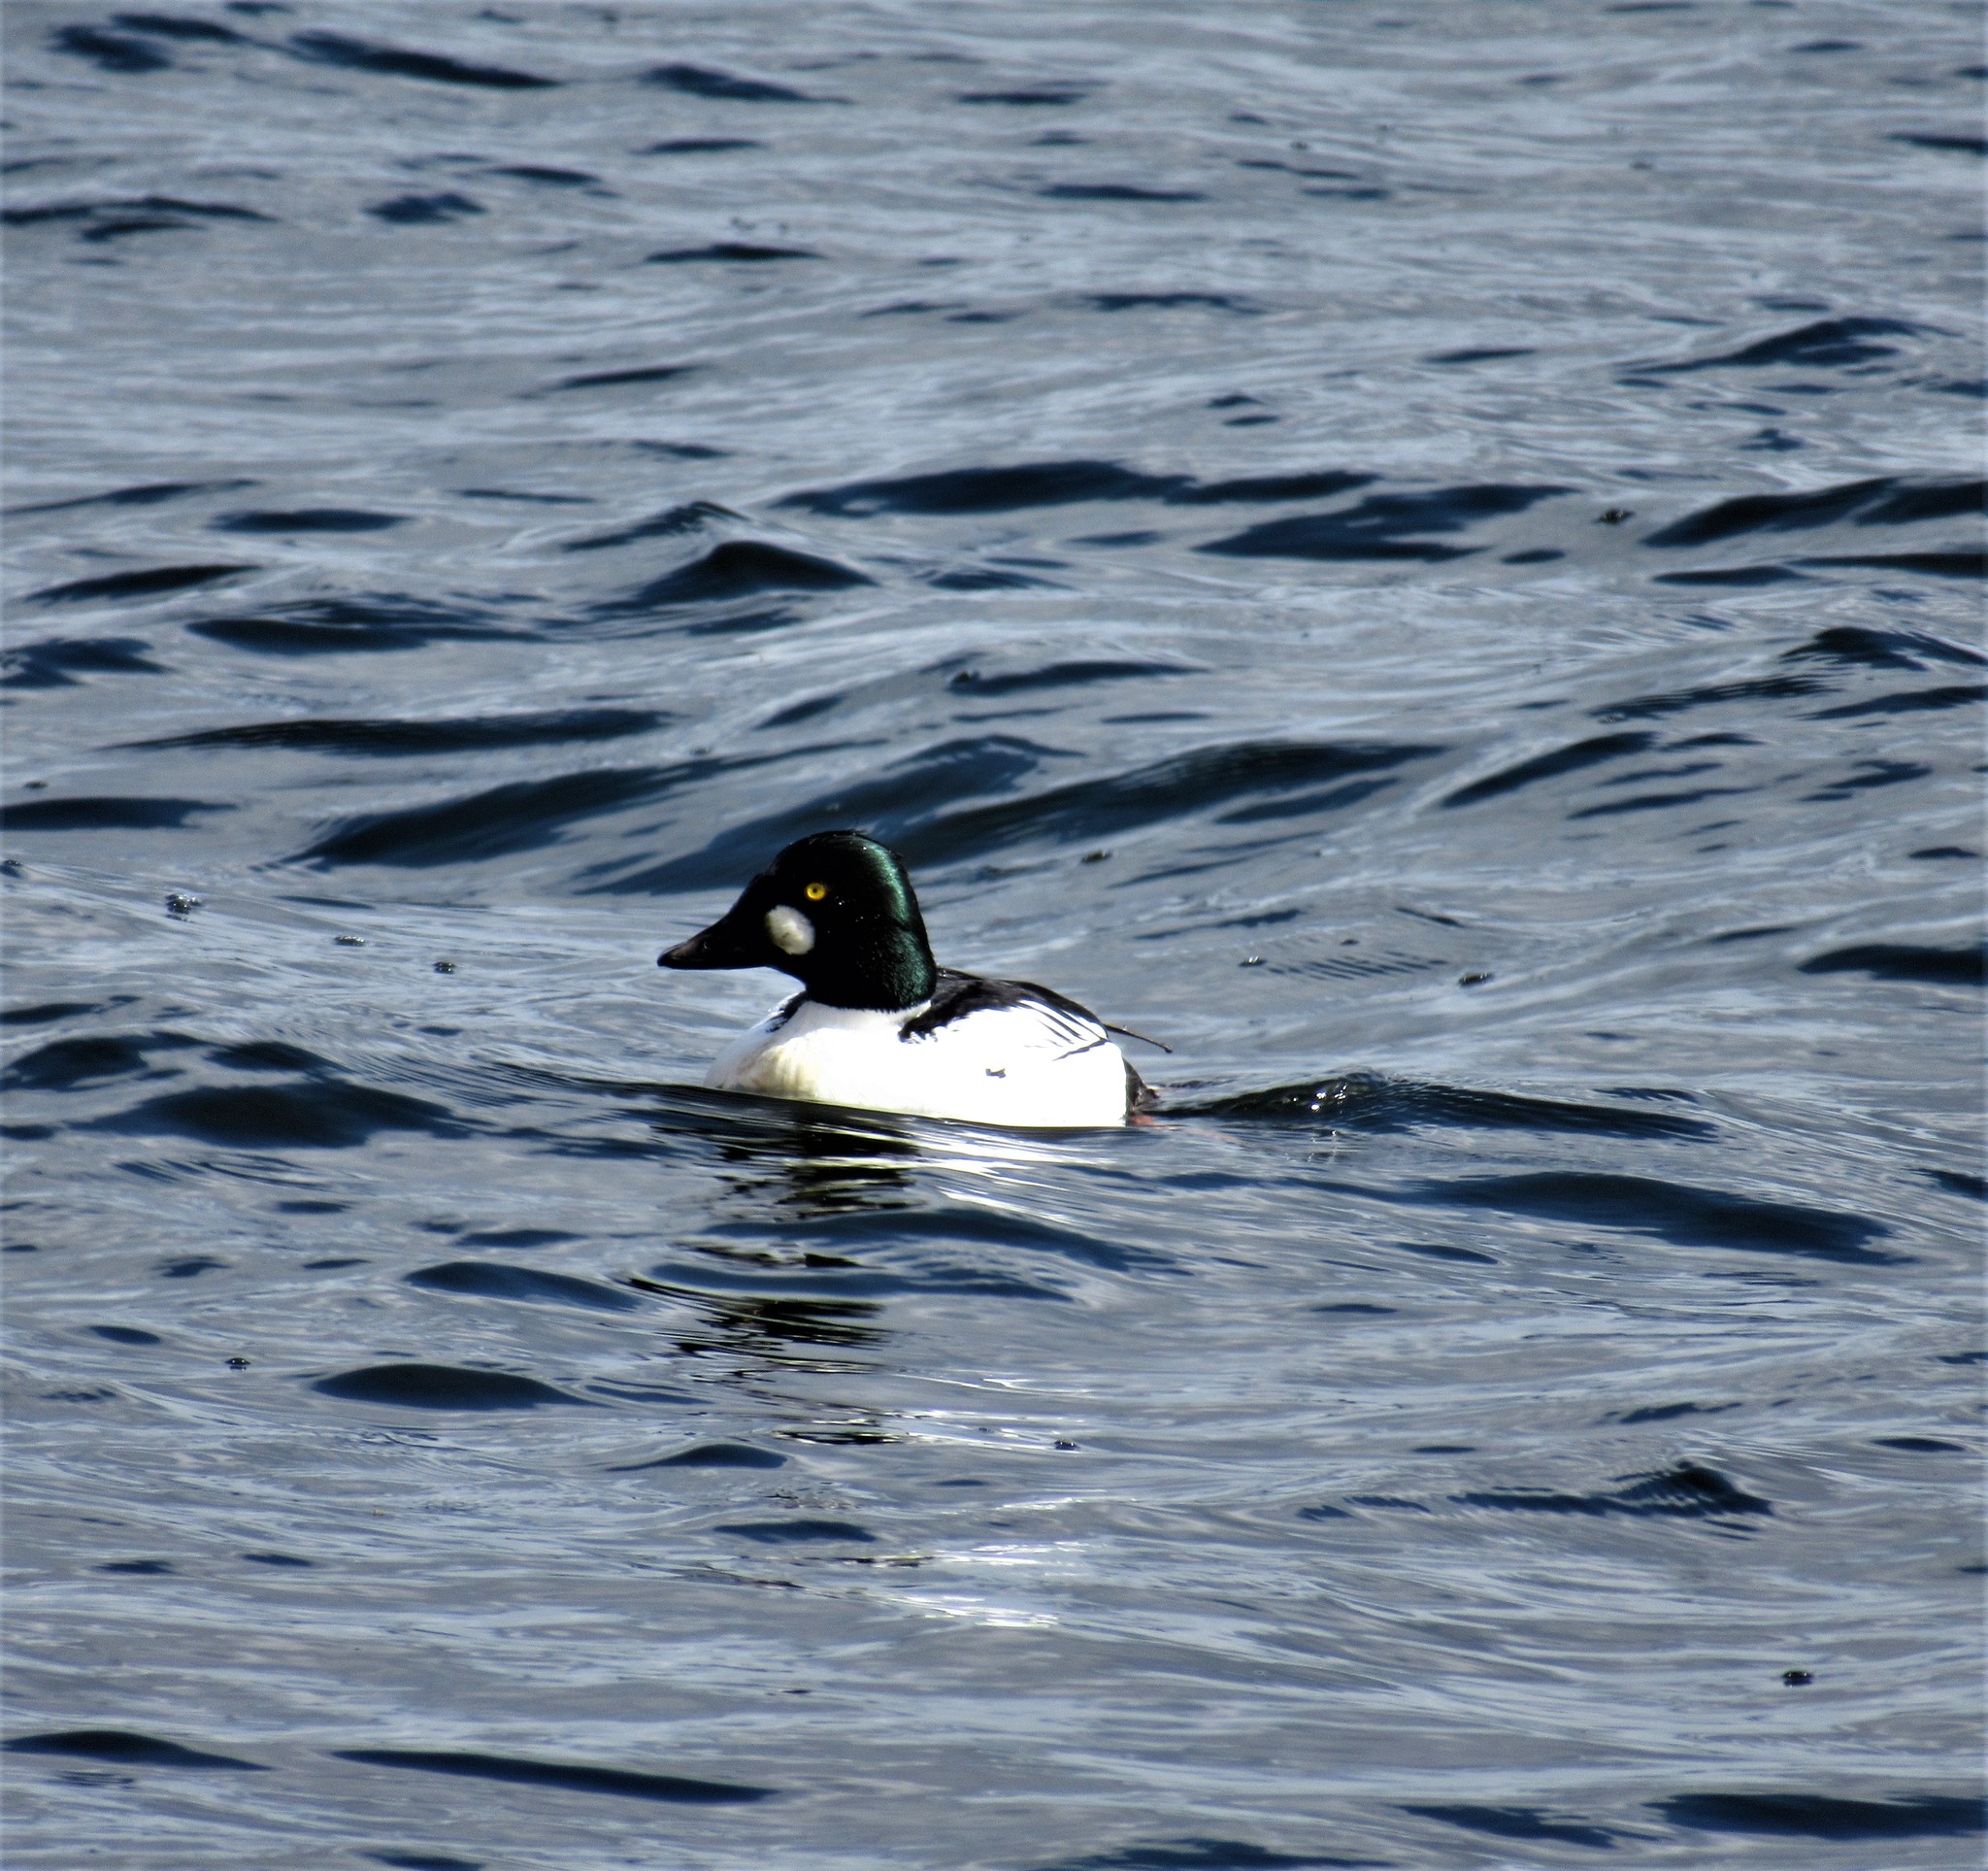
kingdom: Animalia
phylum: Chordata
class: Aves
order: Anseriformes
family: Anatidae
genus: Bucephala
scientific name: Bucephala clangula
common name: Common goldeneye
